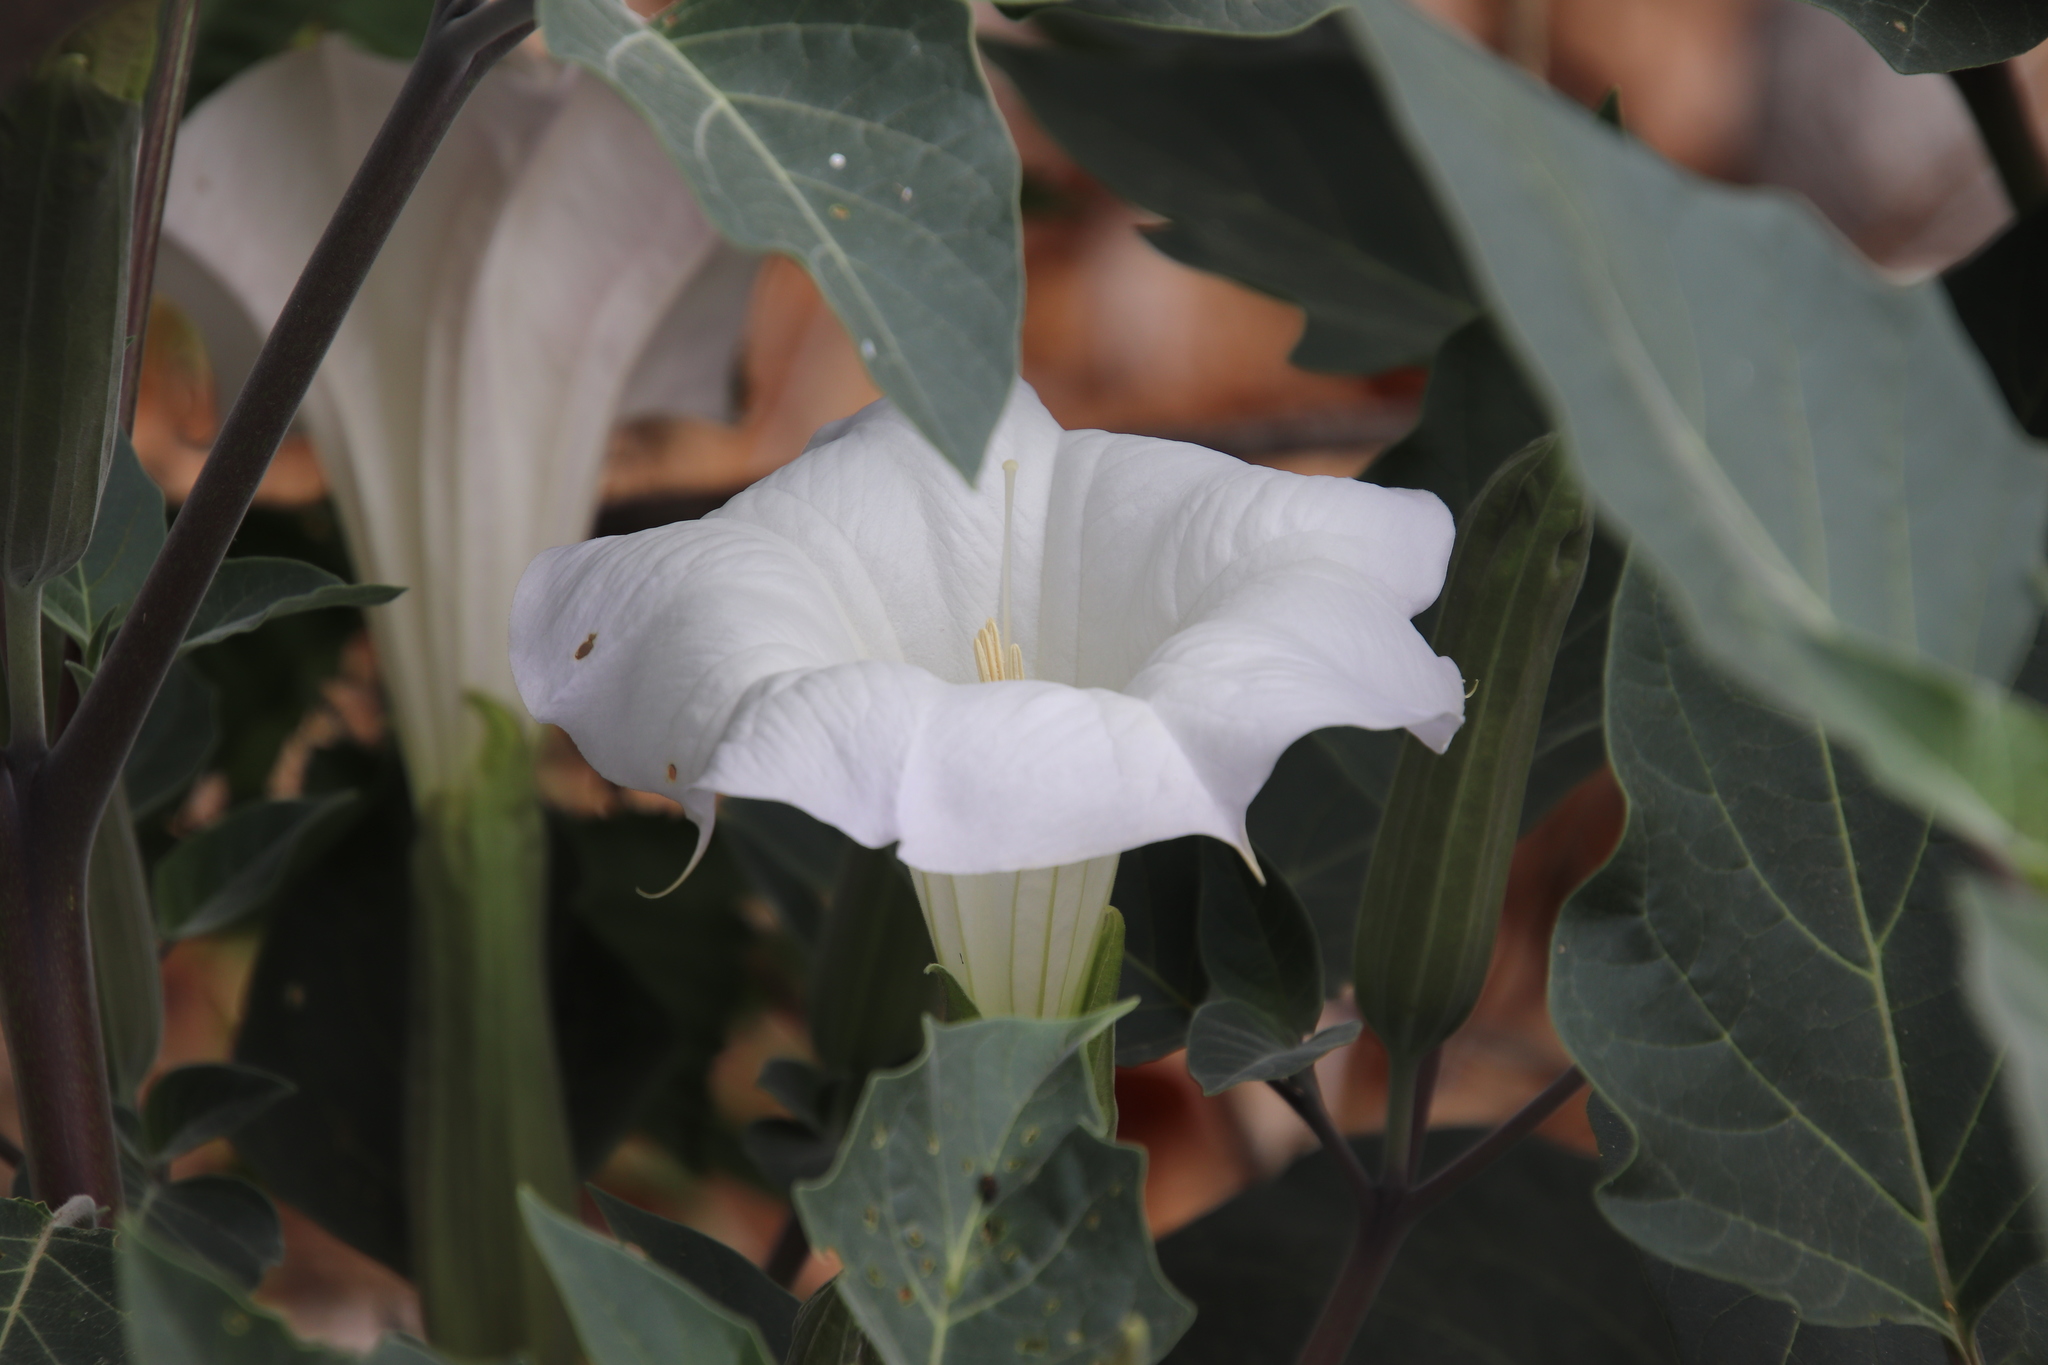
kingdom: Plantae
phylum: Tracheophyta
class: Magnoliopsida
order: Solanales
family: Solanaceae
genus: Datura
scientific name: Datura wrightii
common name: Sacred thorn-apple
